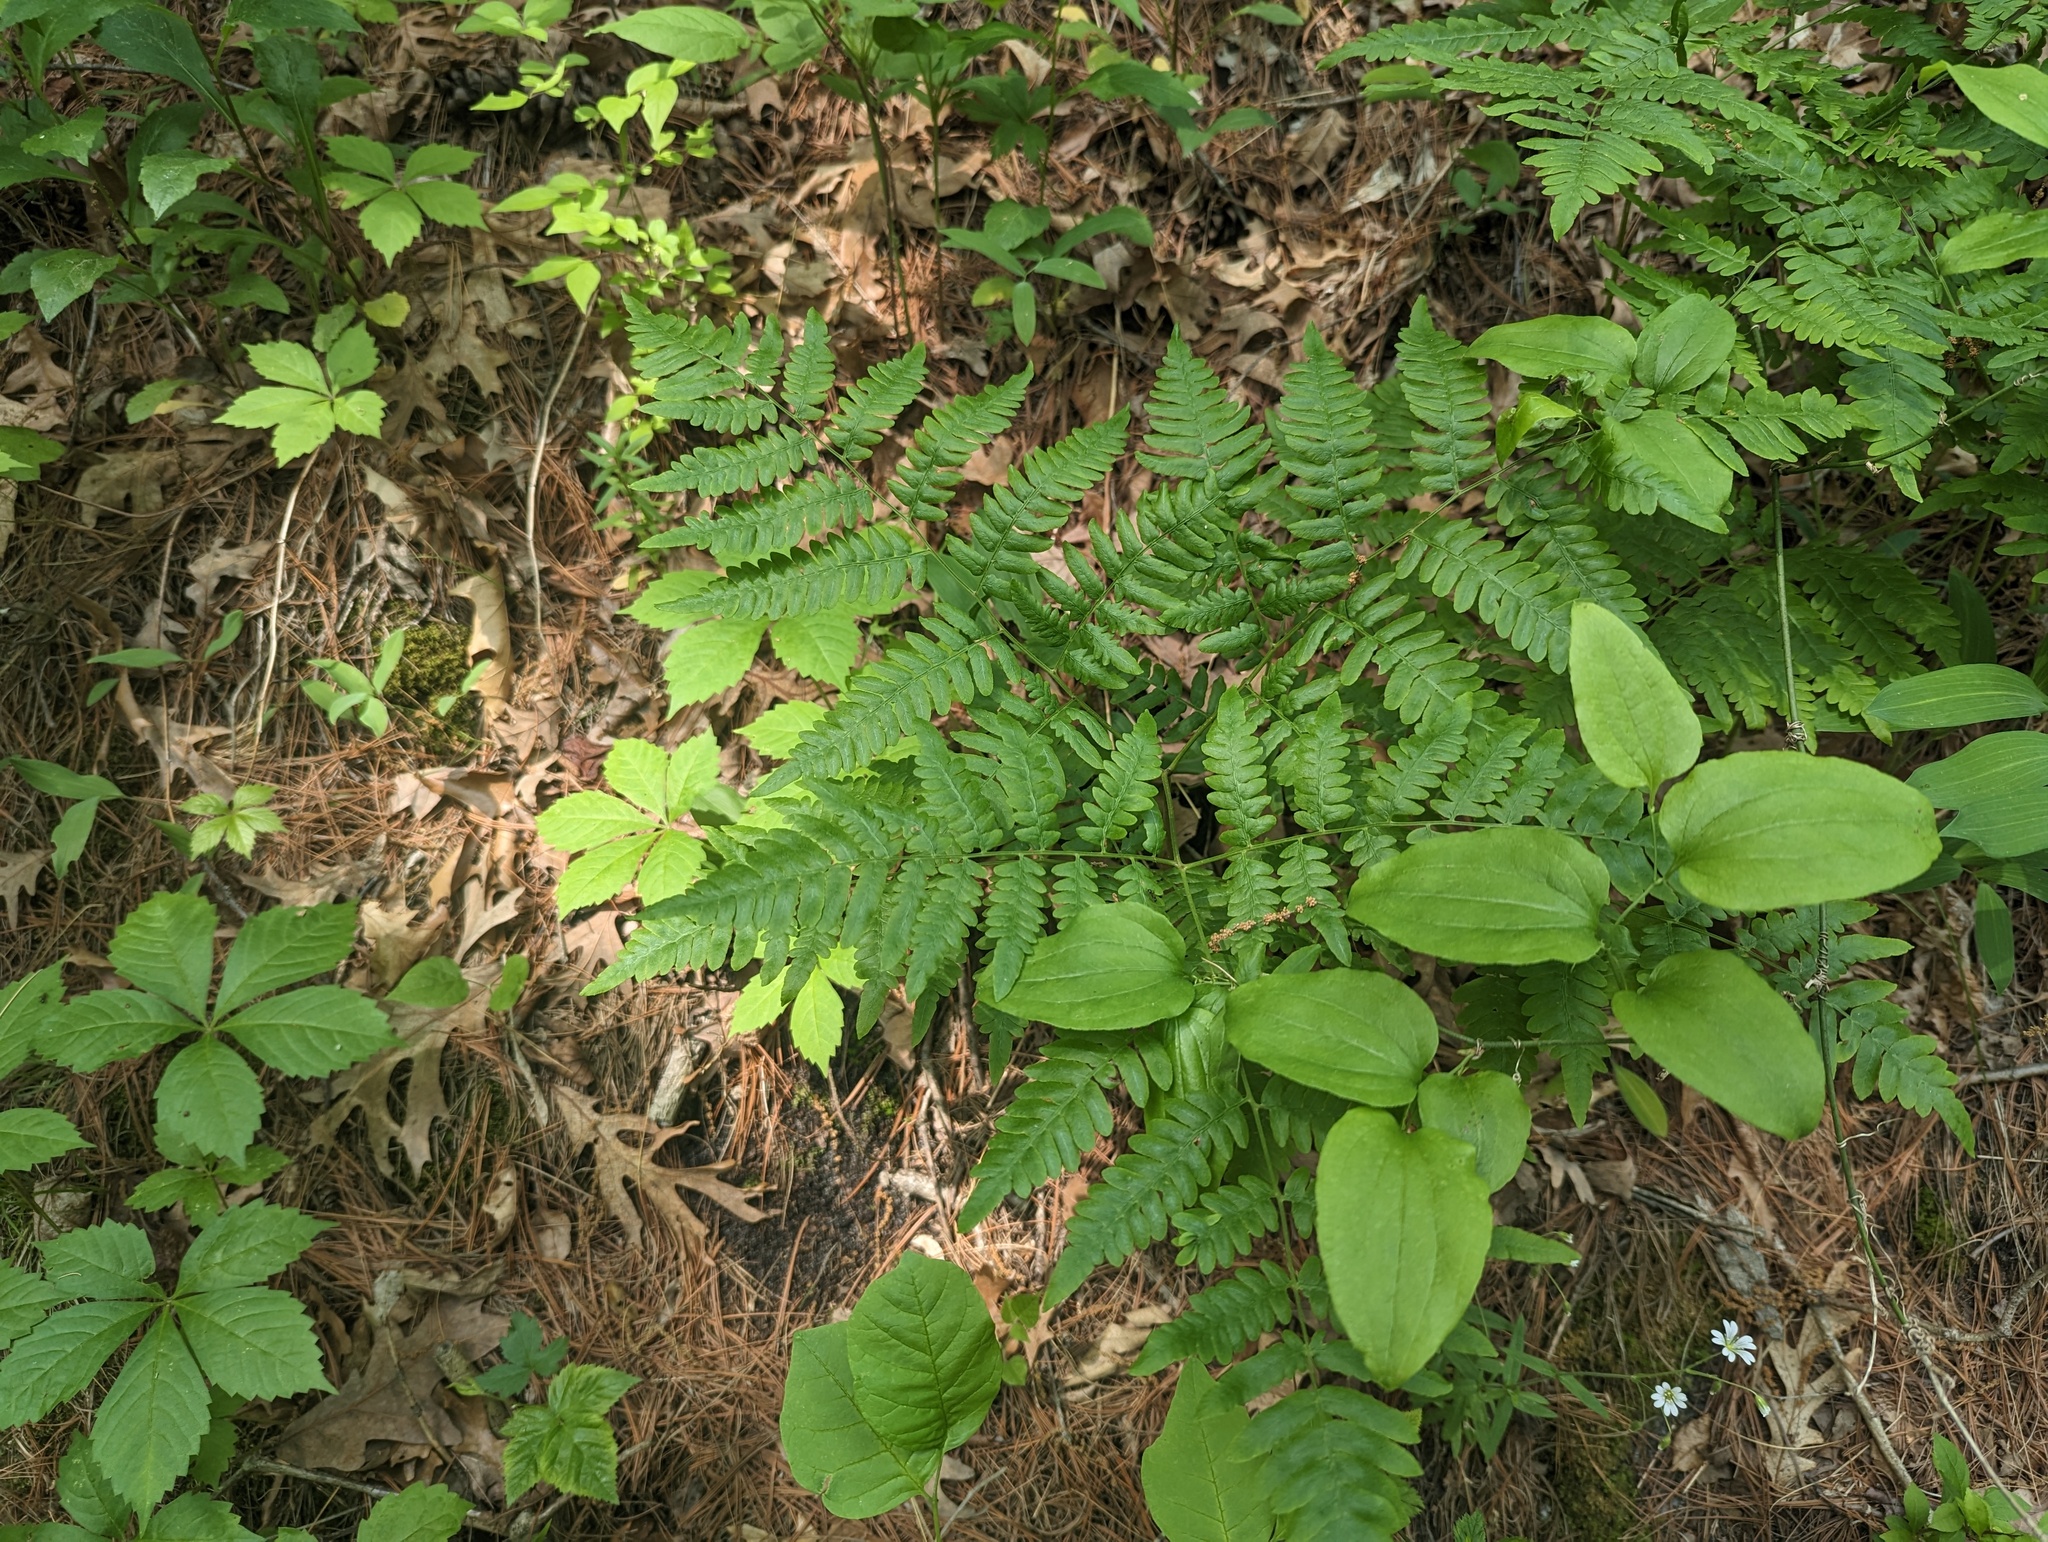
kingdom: Plantae
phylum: Tracheophyta
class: Polypodiopsida
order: Polypodiales
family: Dennstaedtiaceae
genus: Pteridium
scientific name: Pteridium aquilinum
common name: Bracken
